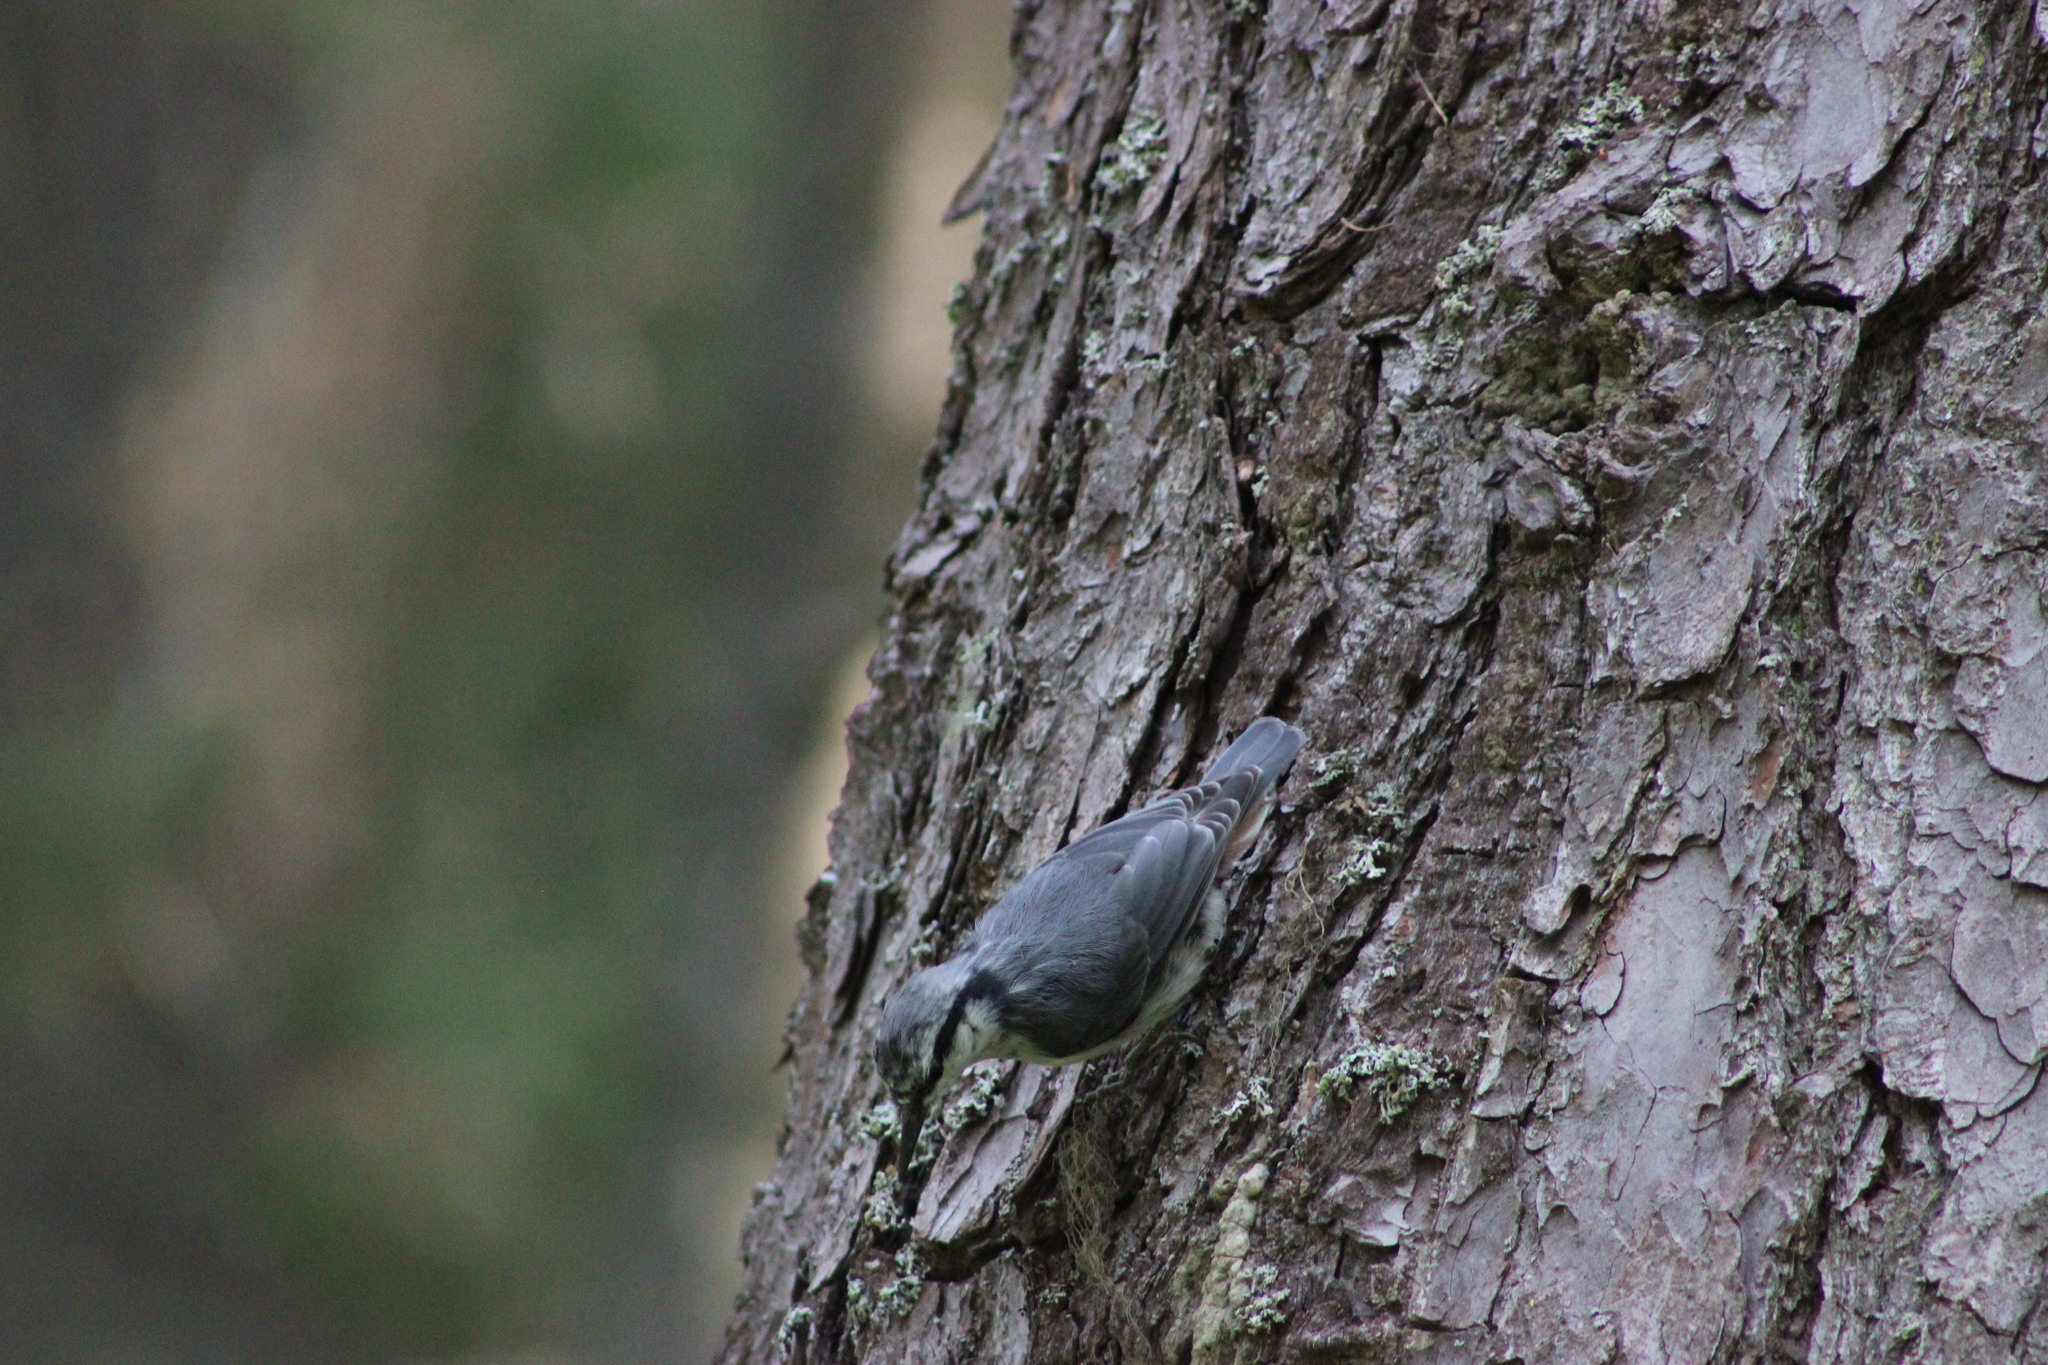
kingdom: Animalia
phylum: Chordata
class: Aves
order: Passeriformes
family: Sittidae
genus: Sitta
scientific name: Sitta europaea
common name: Eurasian nuthatch
